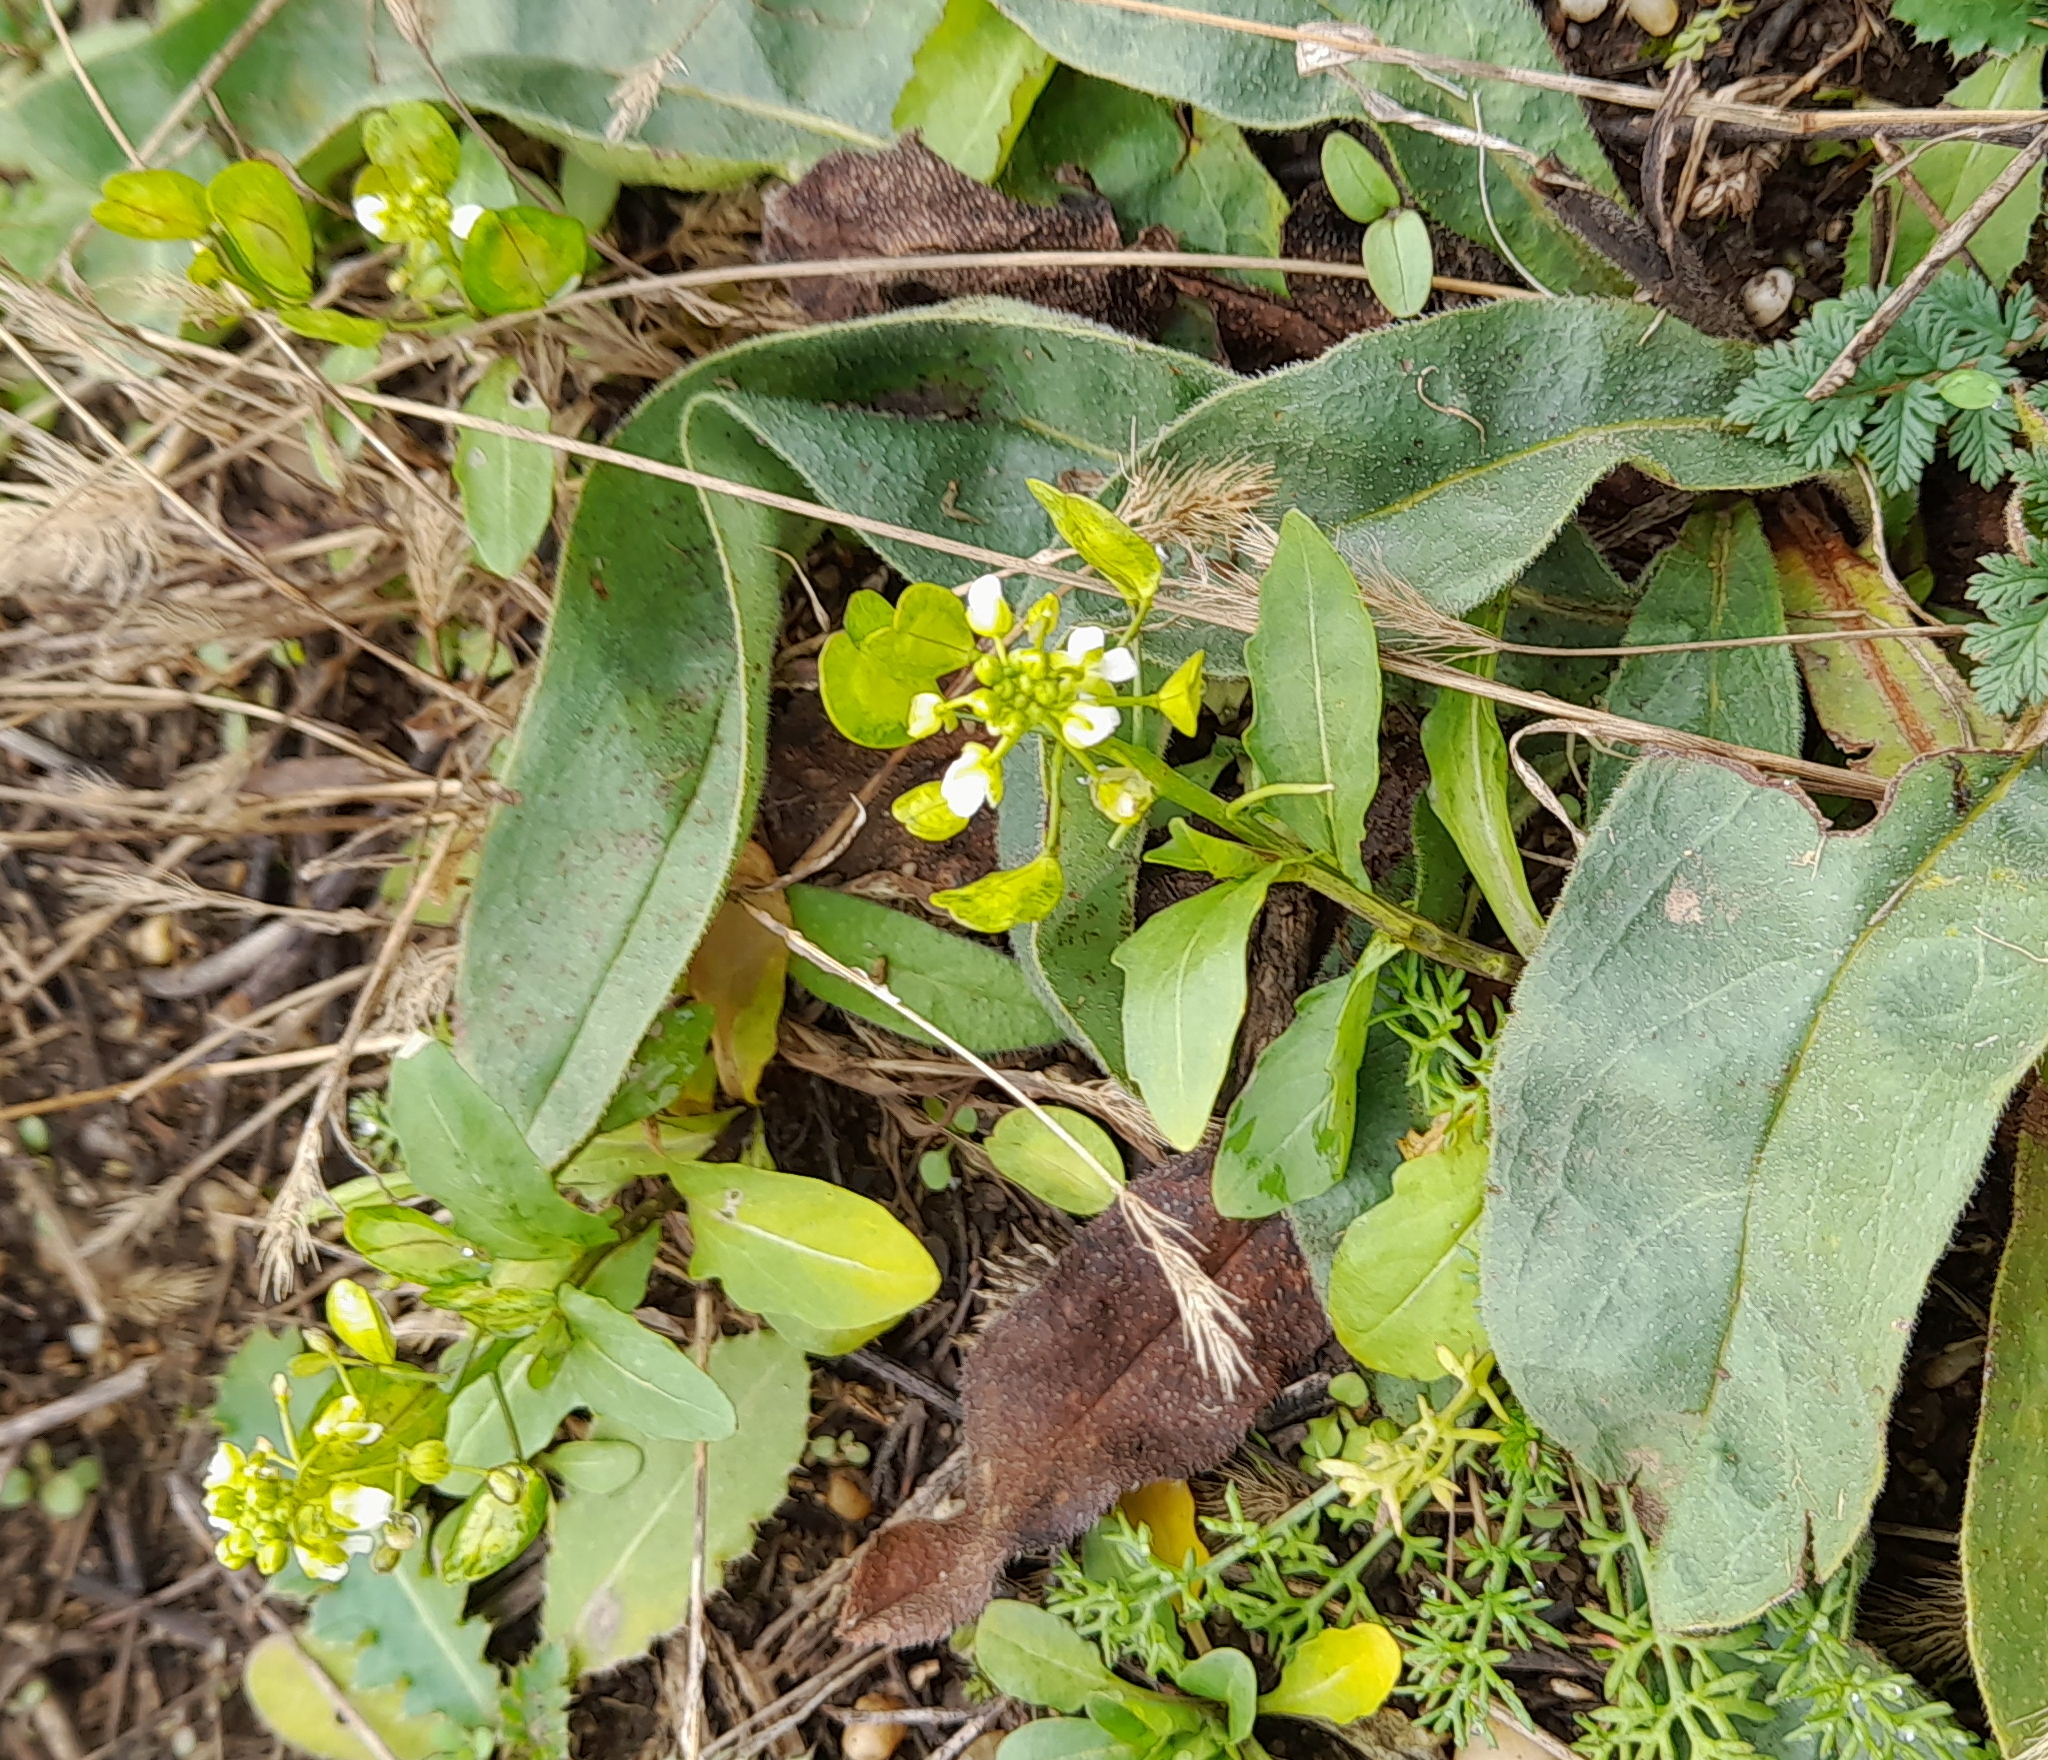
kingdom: Plantae
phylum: Tracheophyta
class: Magnoliopsida
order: Brassicales
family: Brassicaceae
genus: Thlaspi
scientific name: Thlaspi arvense
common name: Field pennycress
